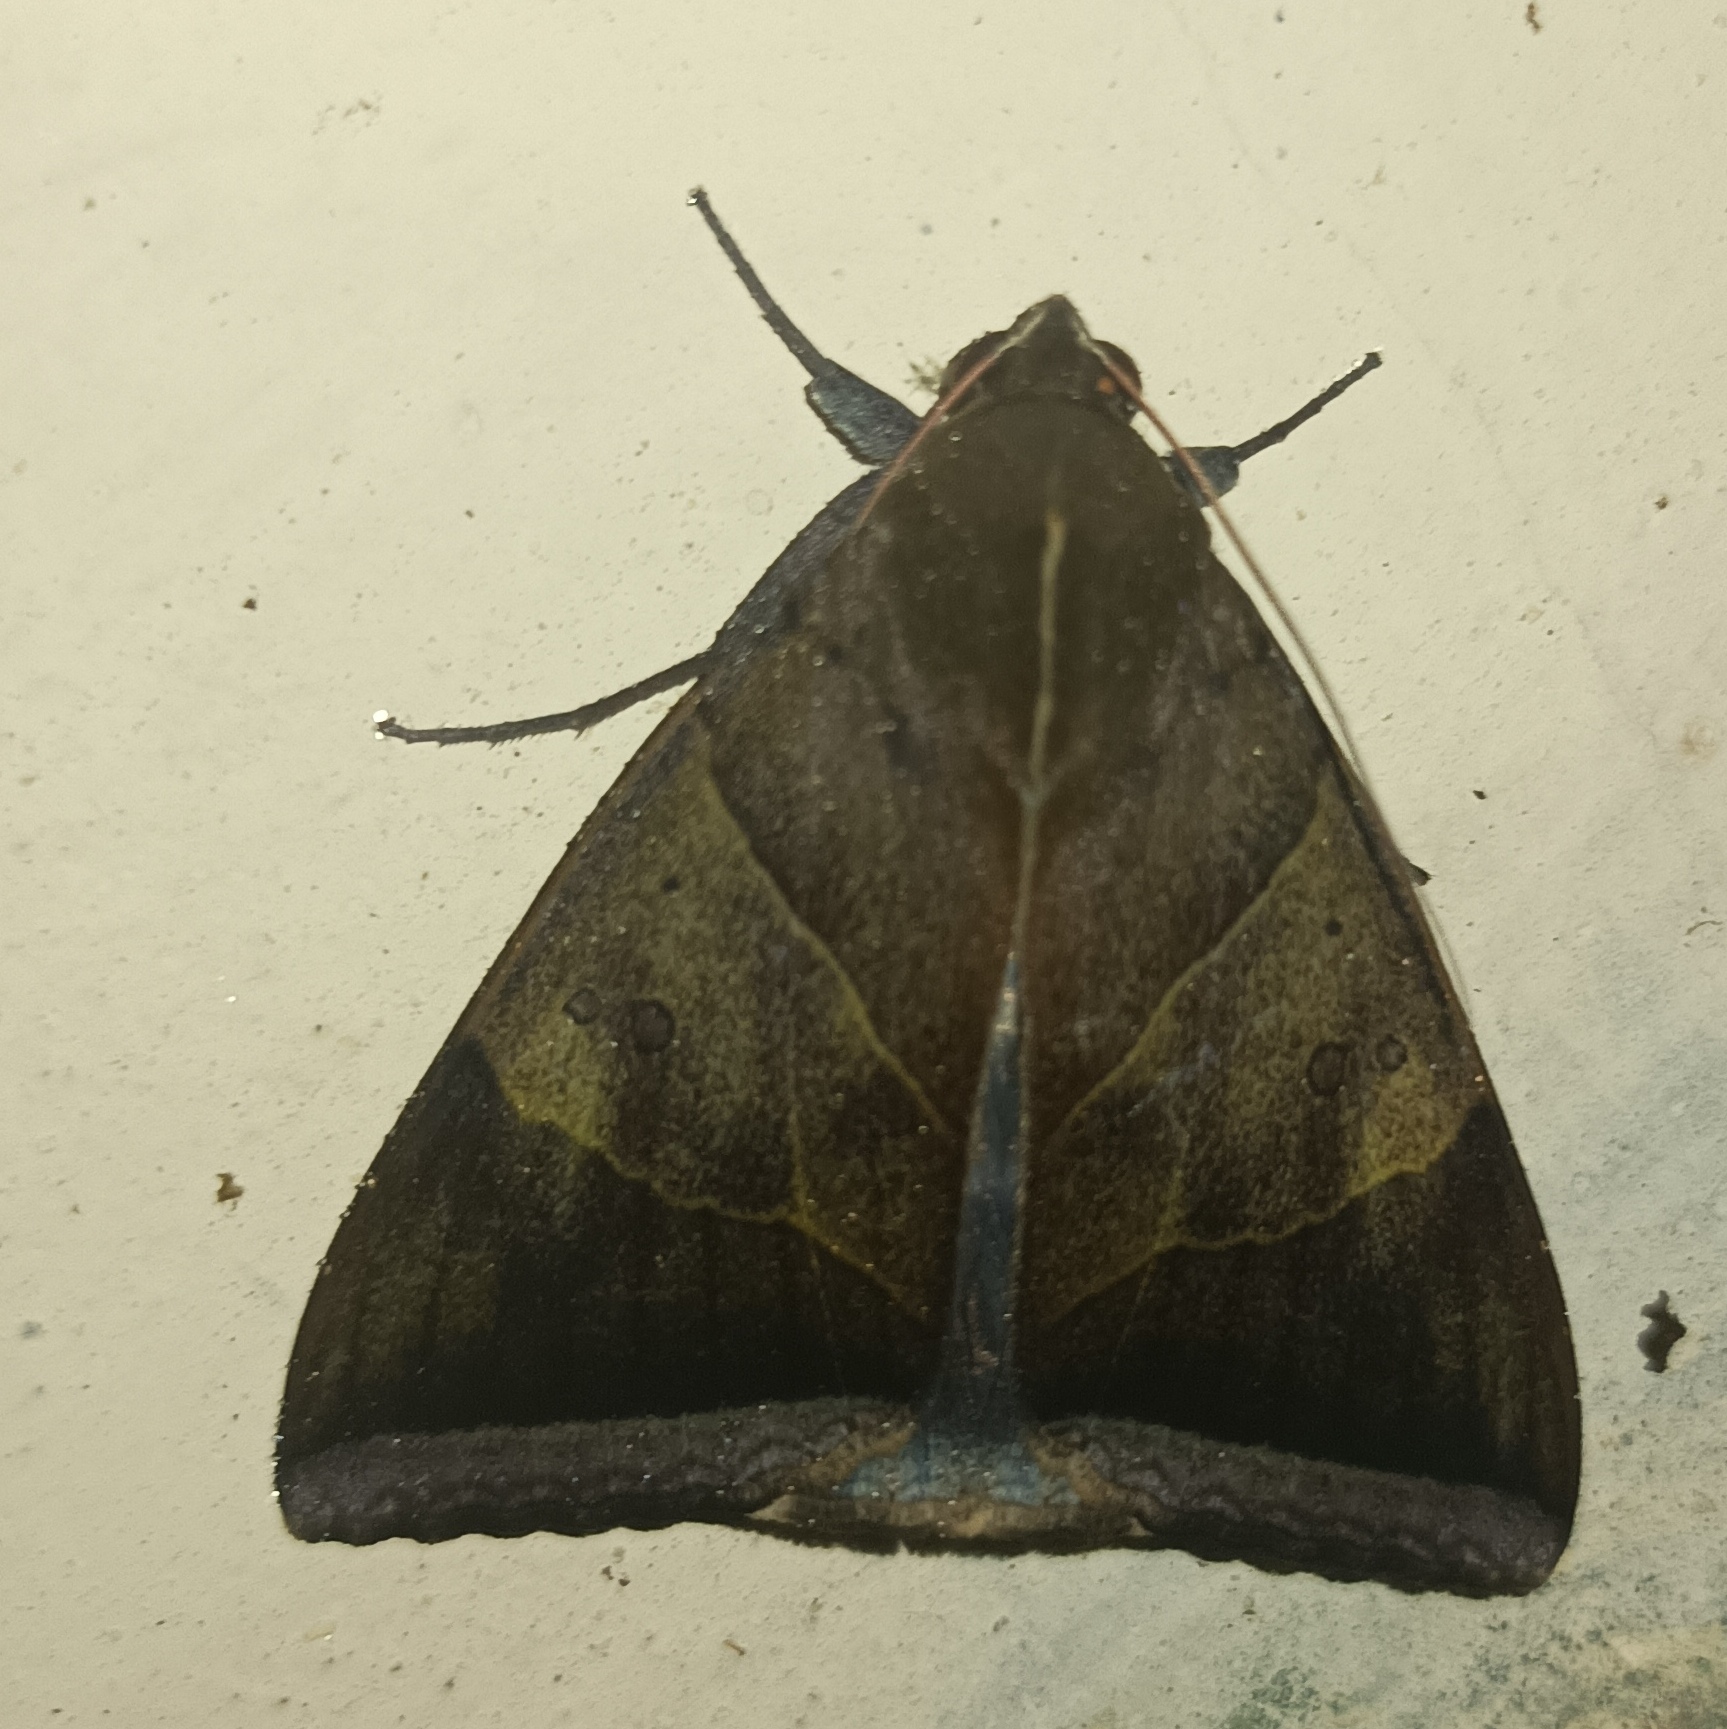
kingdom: Animalia
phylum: Arthropoda
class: Insecta
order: Lepidoptera
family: Erebidae
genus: Artena
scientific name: Artena dotata
